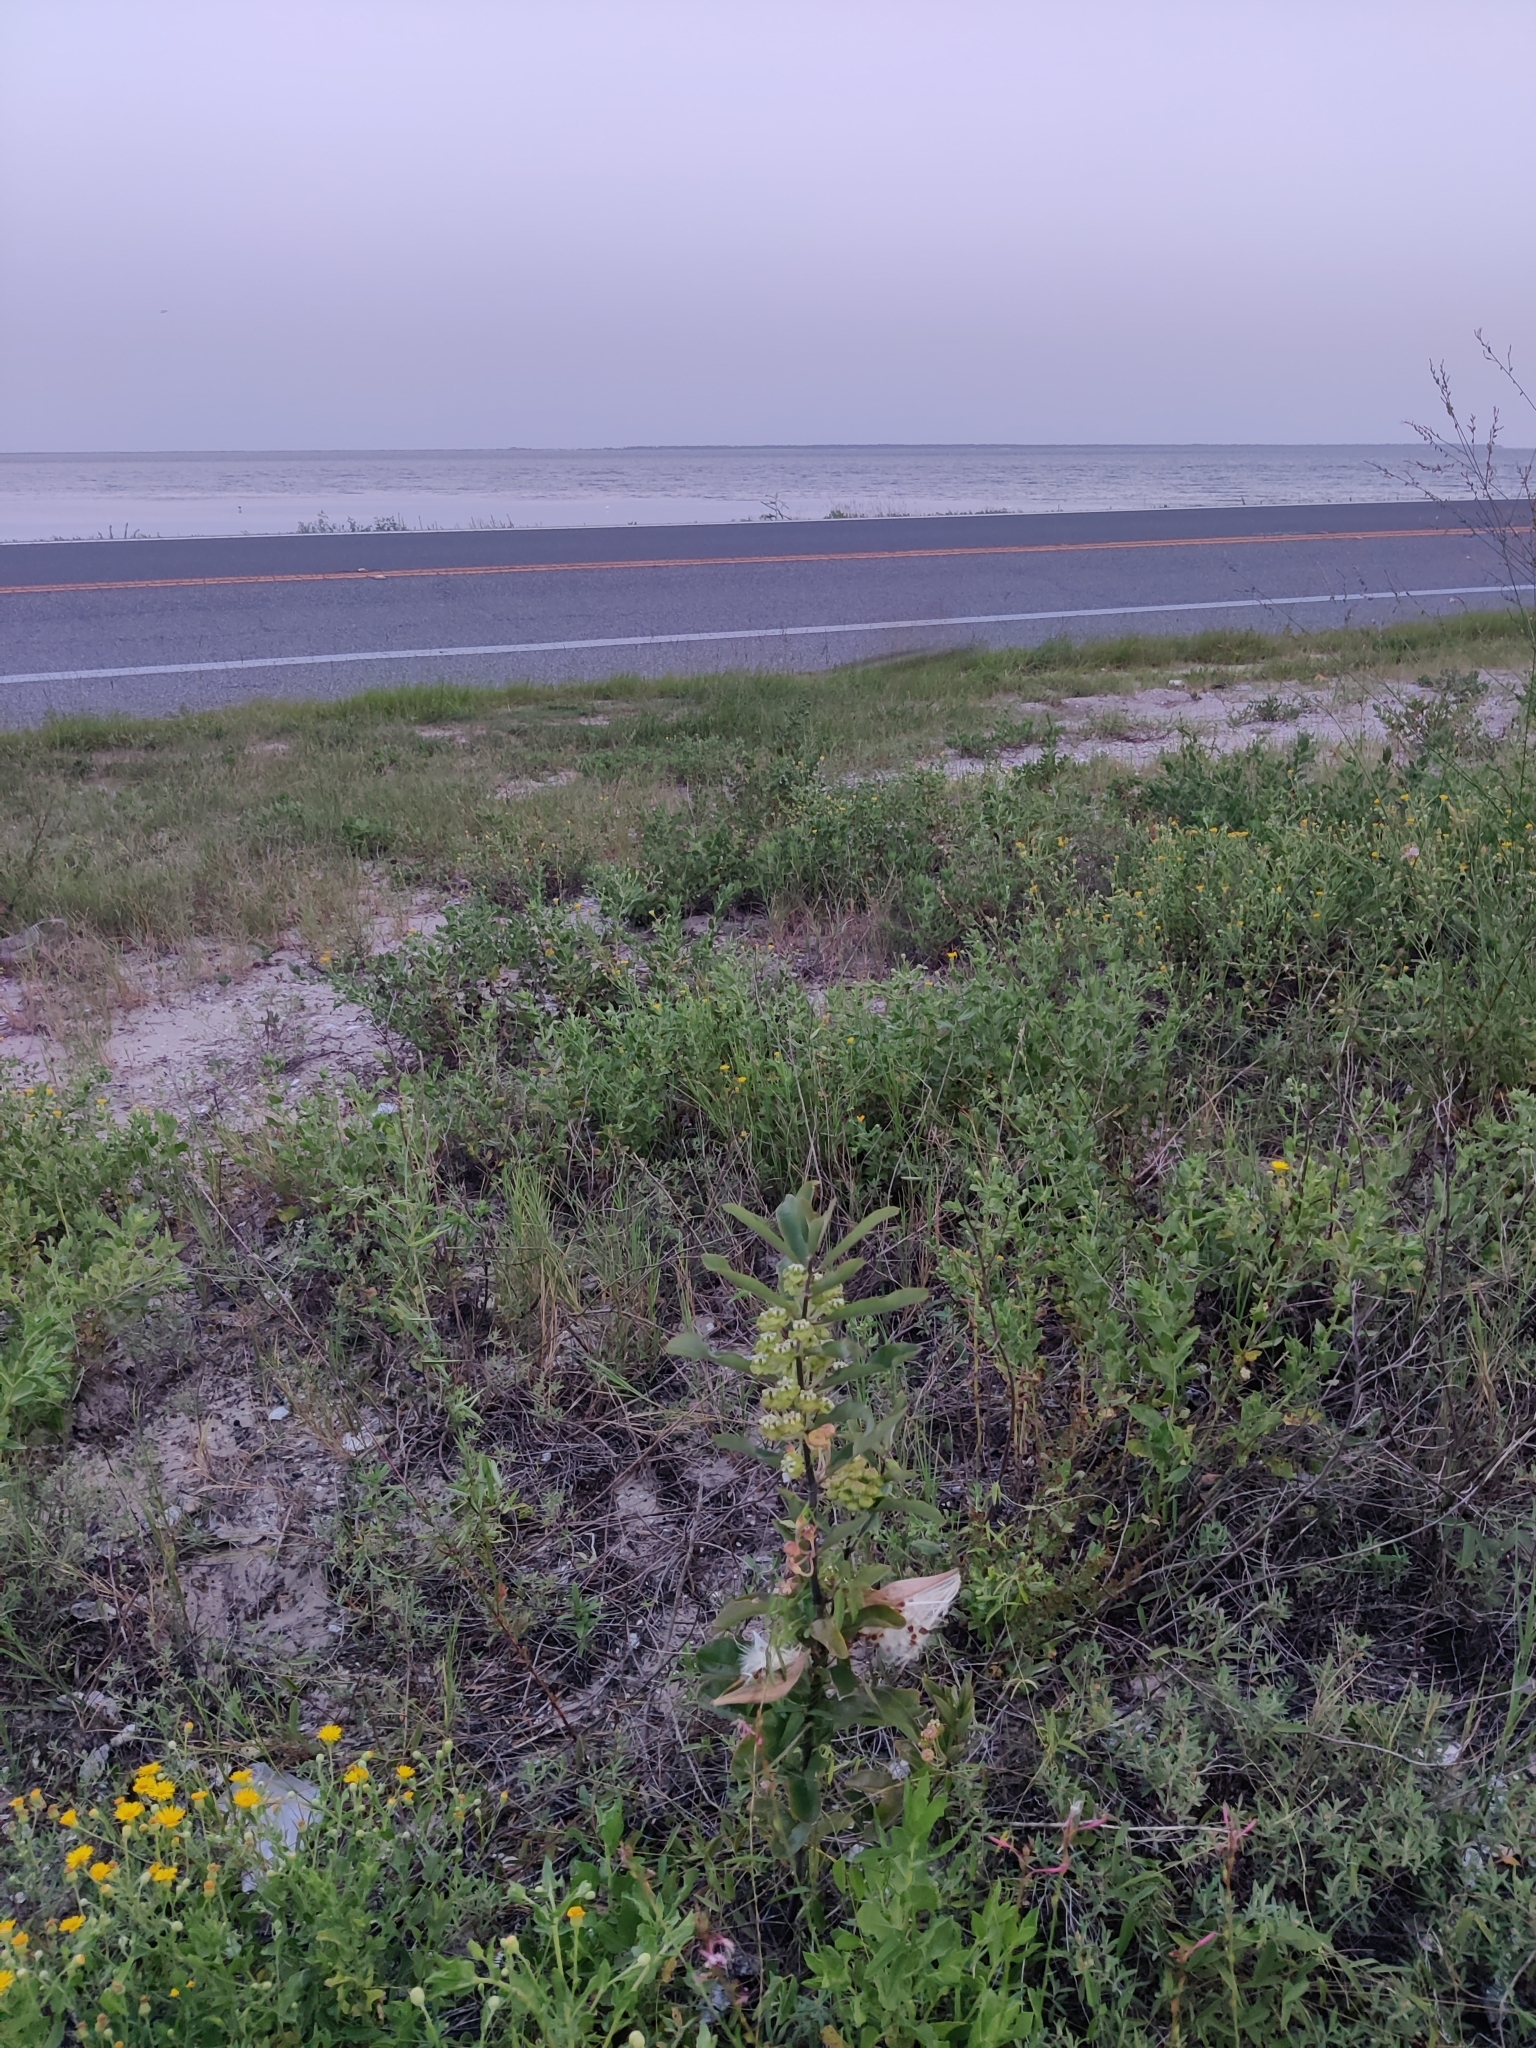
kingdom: Plantae
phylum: Tracheophyta
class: Magnoliopsida
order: Gentianales
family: Apocynaceae
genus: Asclepias
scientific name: Asclepias tomentosa
